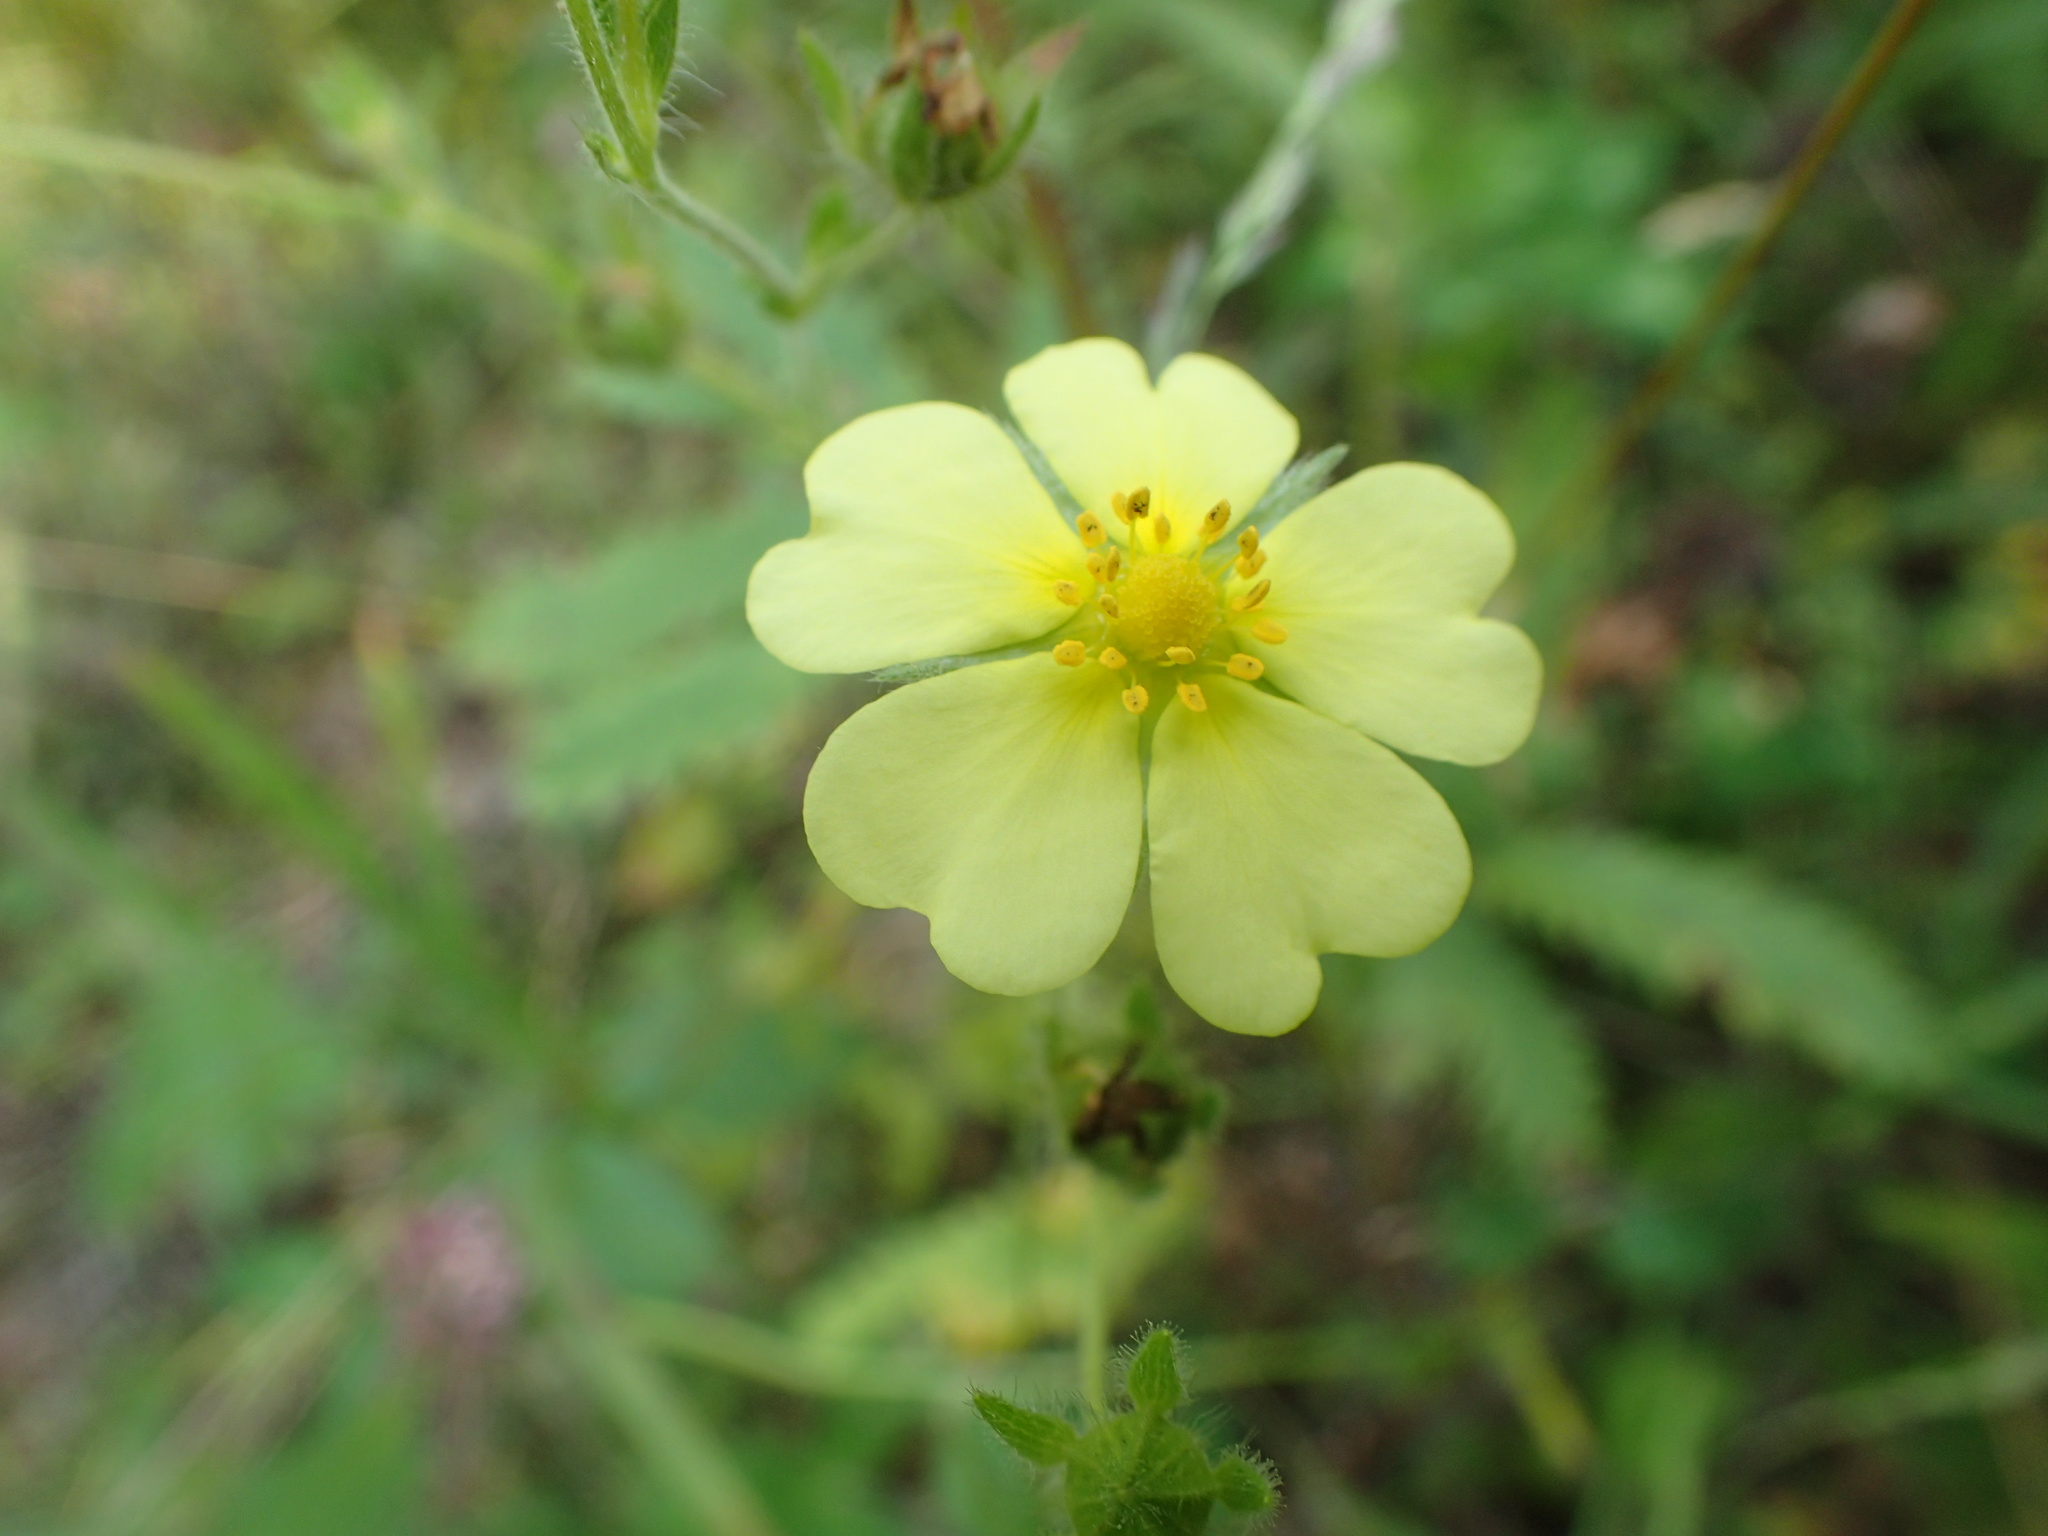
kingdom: Plantae
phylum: Tracheophyta
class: Magnoliopsida
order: Rosales
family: Rosaceae
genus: Potentilla
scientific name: Potentilla recta
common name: Sulphur cinquefoil
